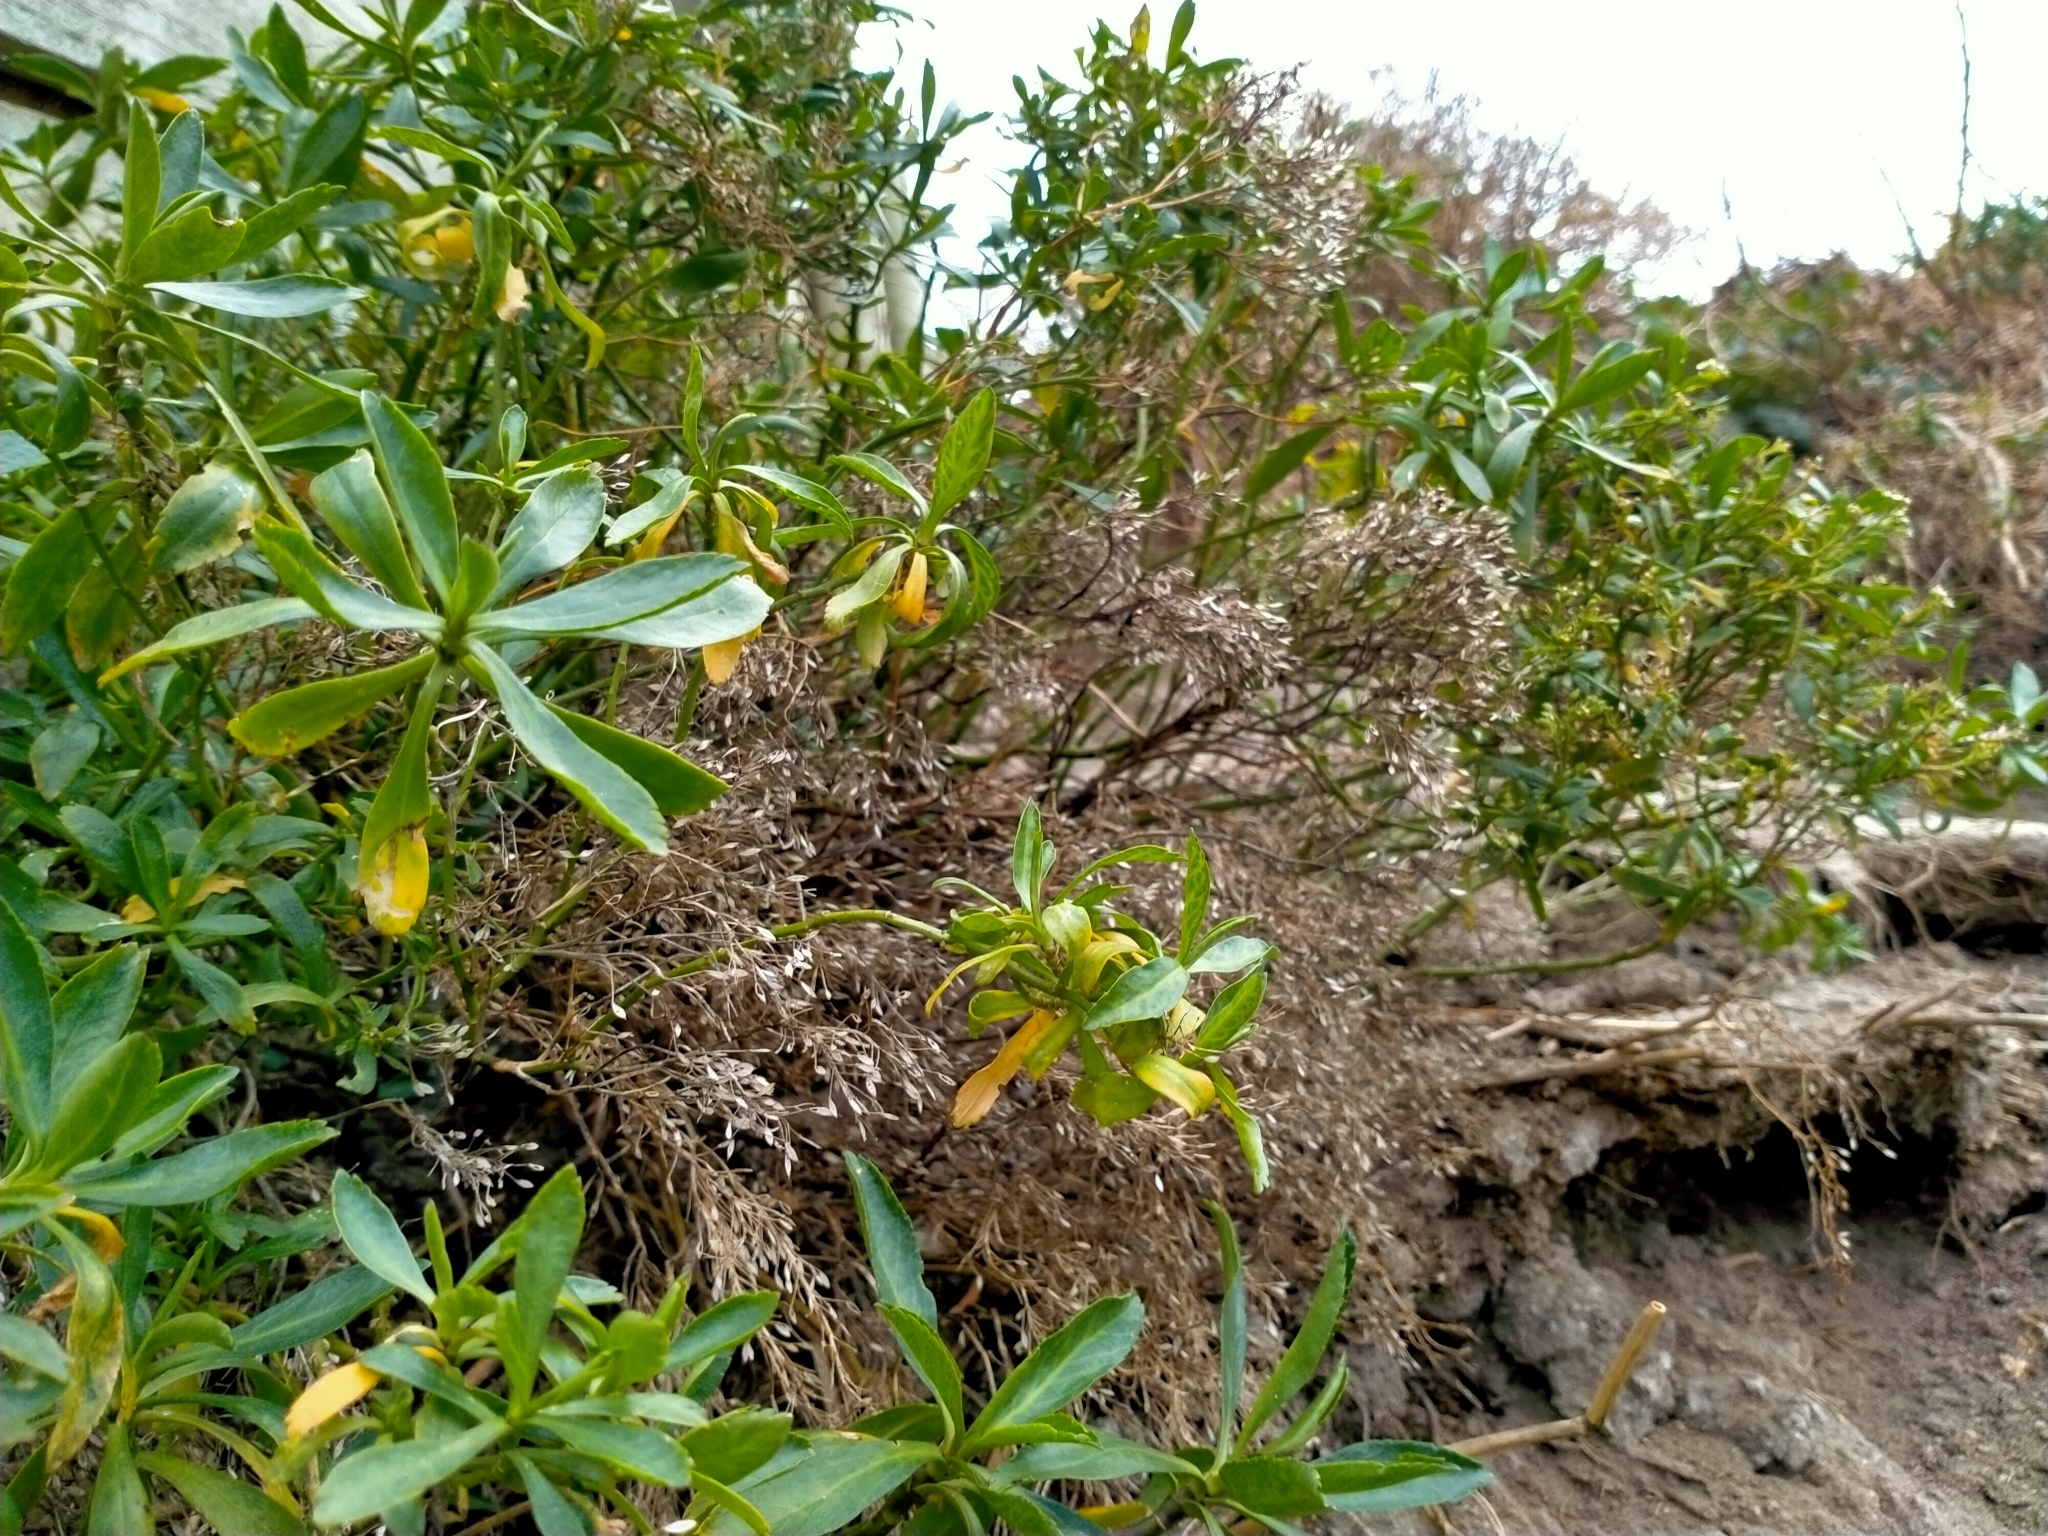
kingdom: Plantae
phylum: Tracheophyta
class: Magnoliopsida
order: Brassicales
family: Brassicaceae
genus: Lepidium
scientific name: Lepidium crassum
